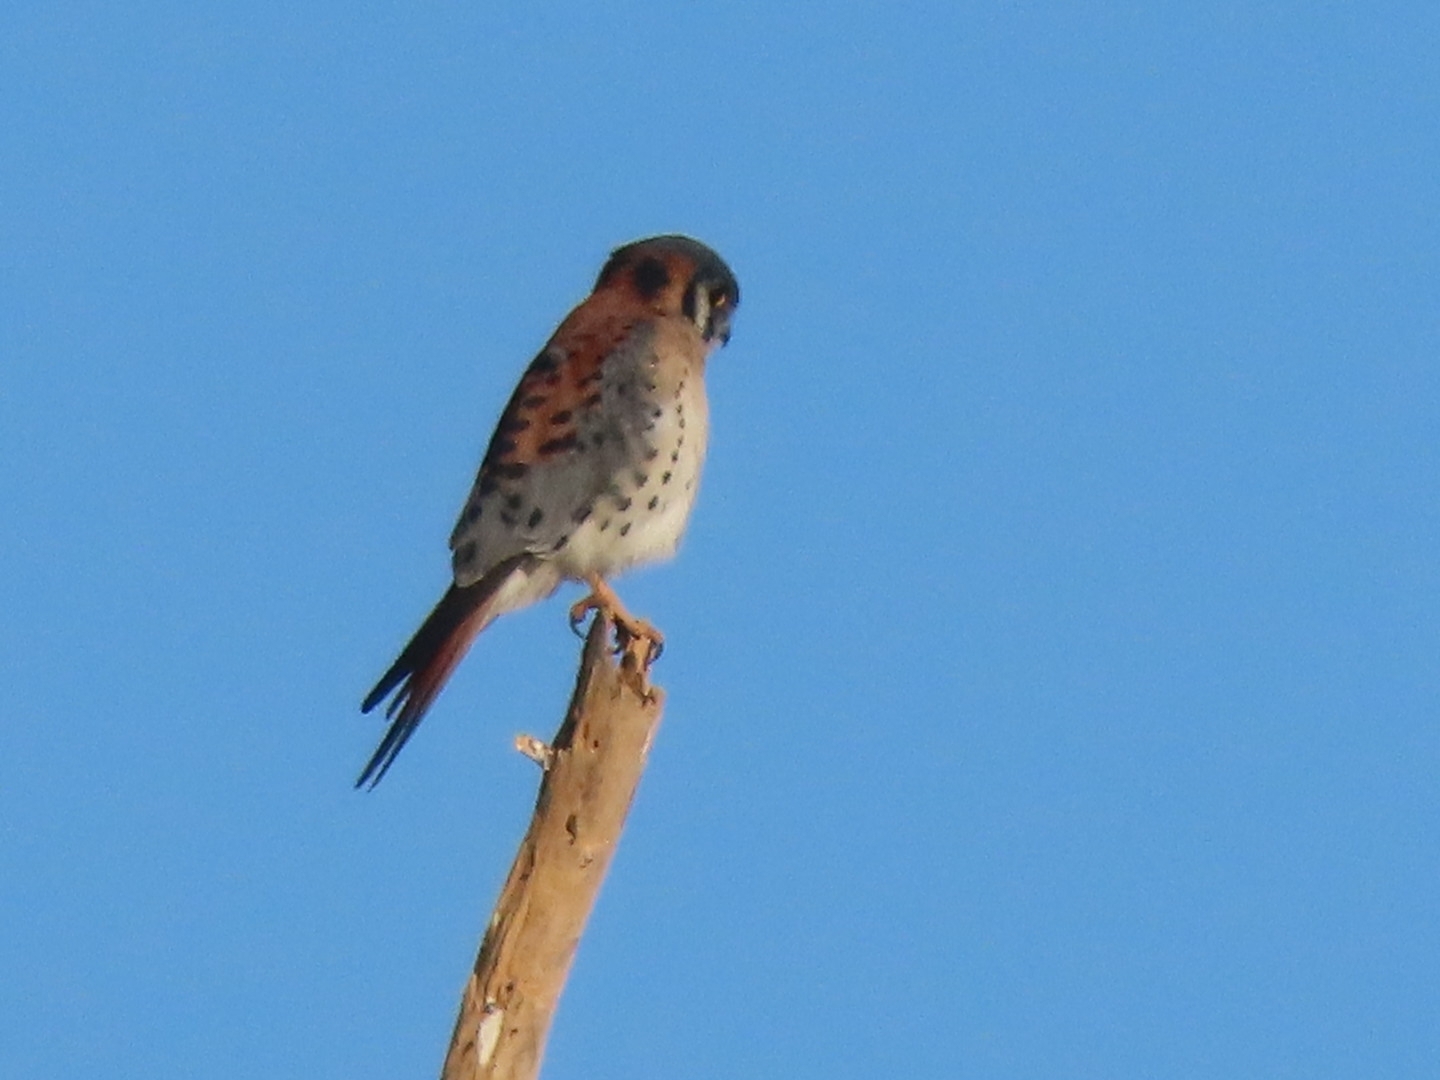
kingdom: Animalia
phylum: Chordata
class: Aves
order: Falconiformes
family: Falconidae
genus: Falco
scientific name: Falco sparverius
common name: American kestrel
